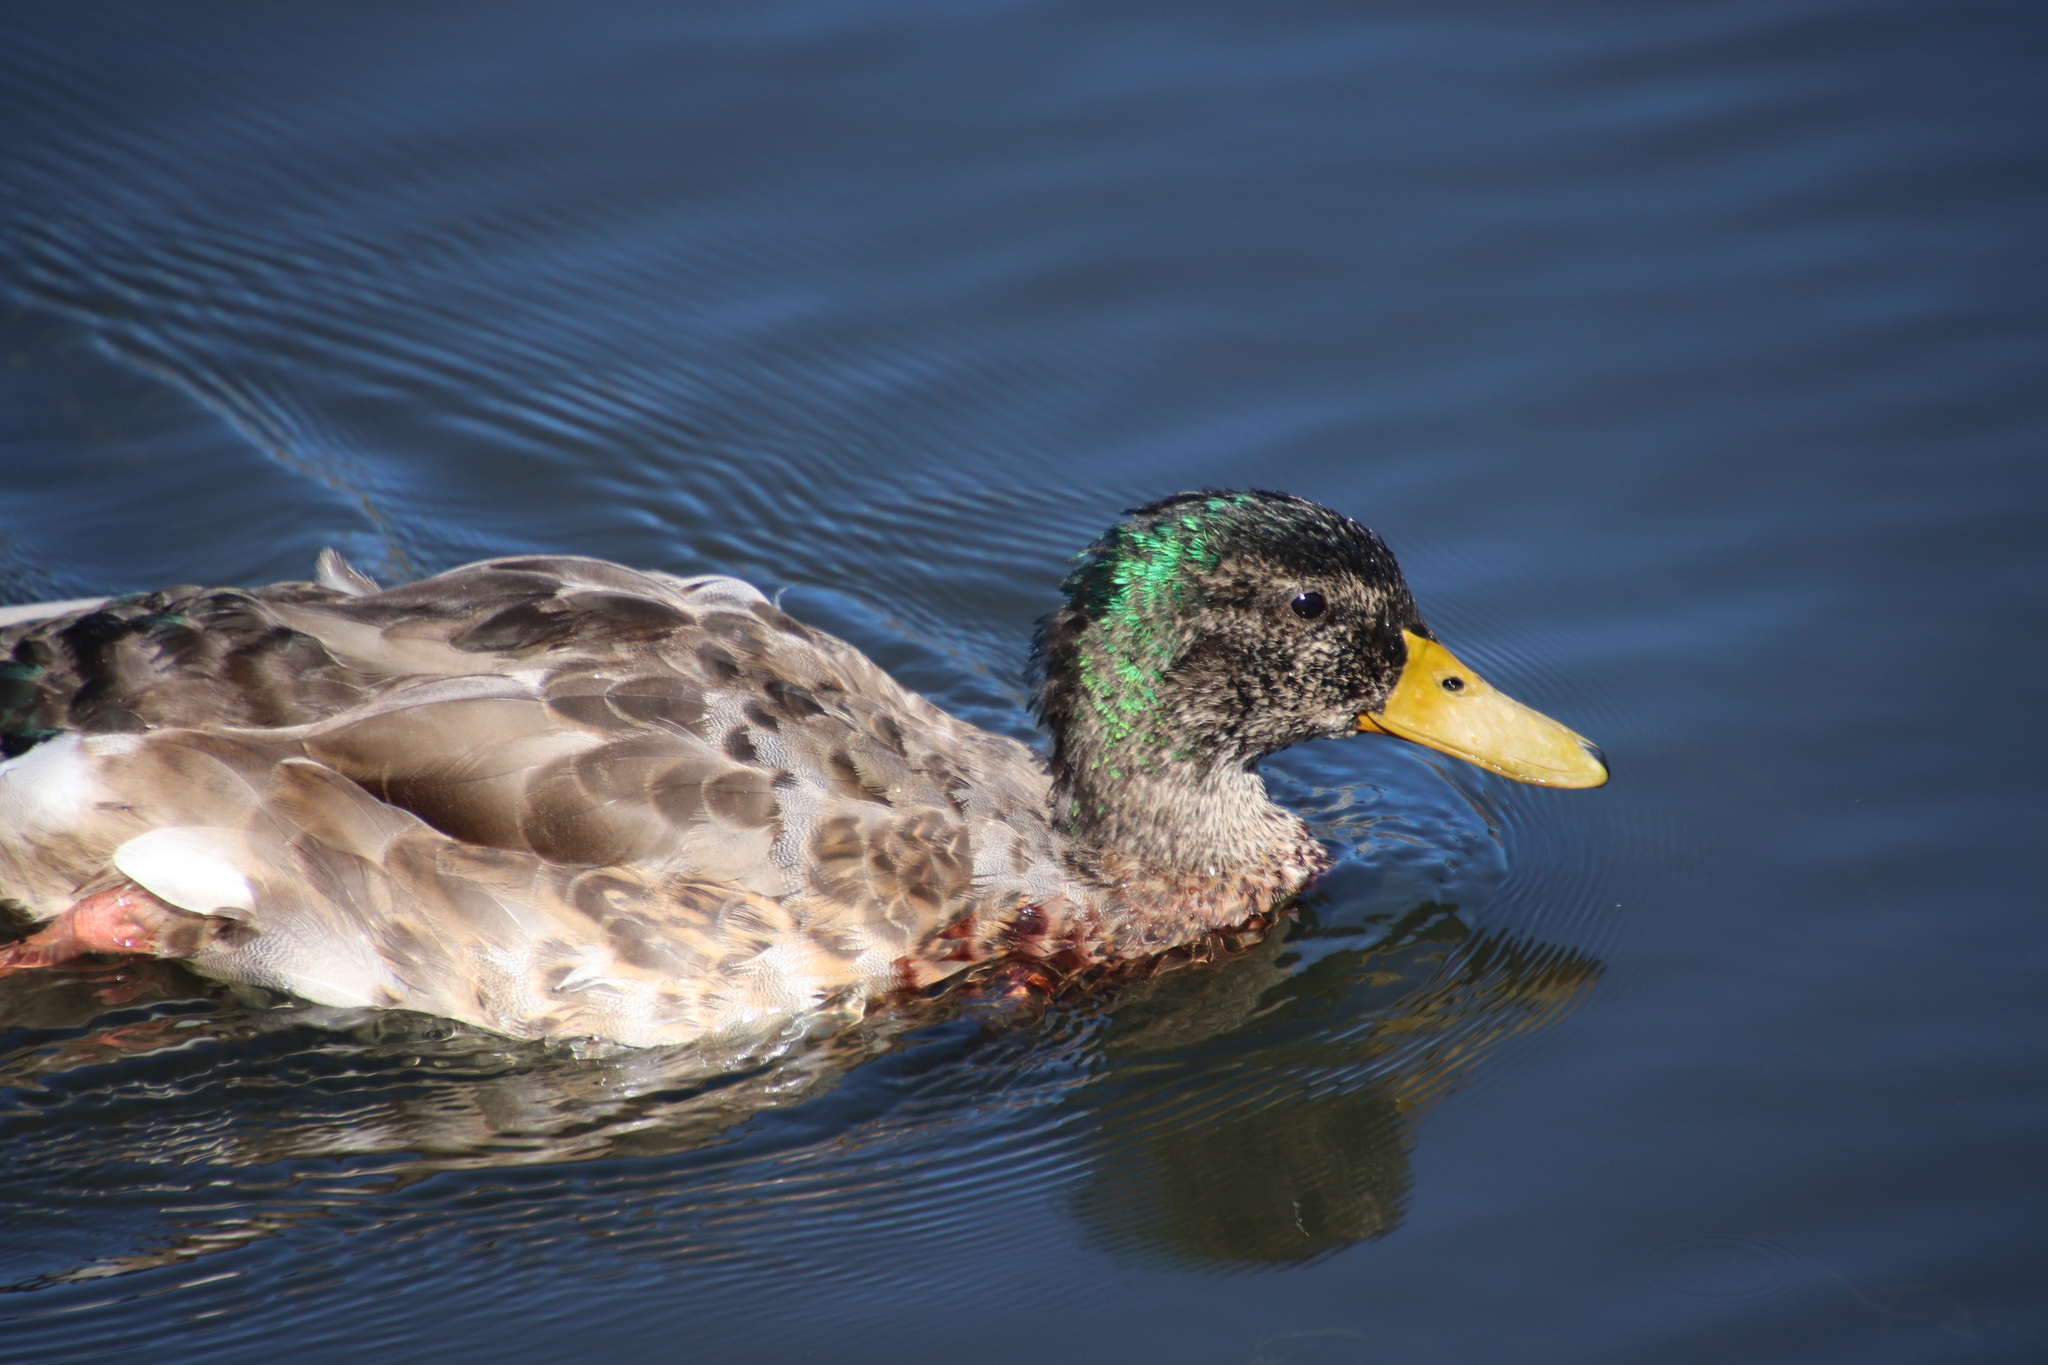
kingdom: Animalia
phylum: Chordata
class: Aves
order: Anseriformes
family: Anatidae
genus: Anas
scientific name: Anas platyrhynchos
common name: Mallard
